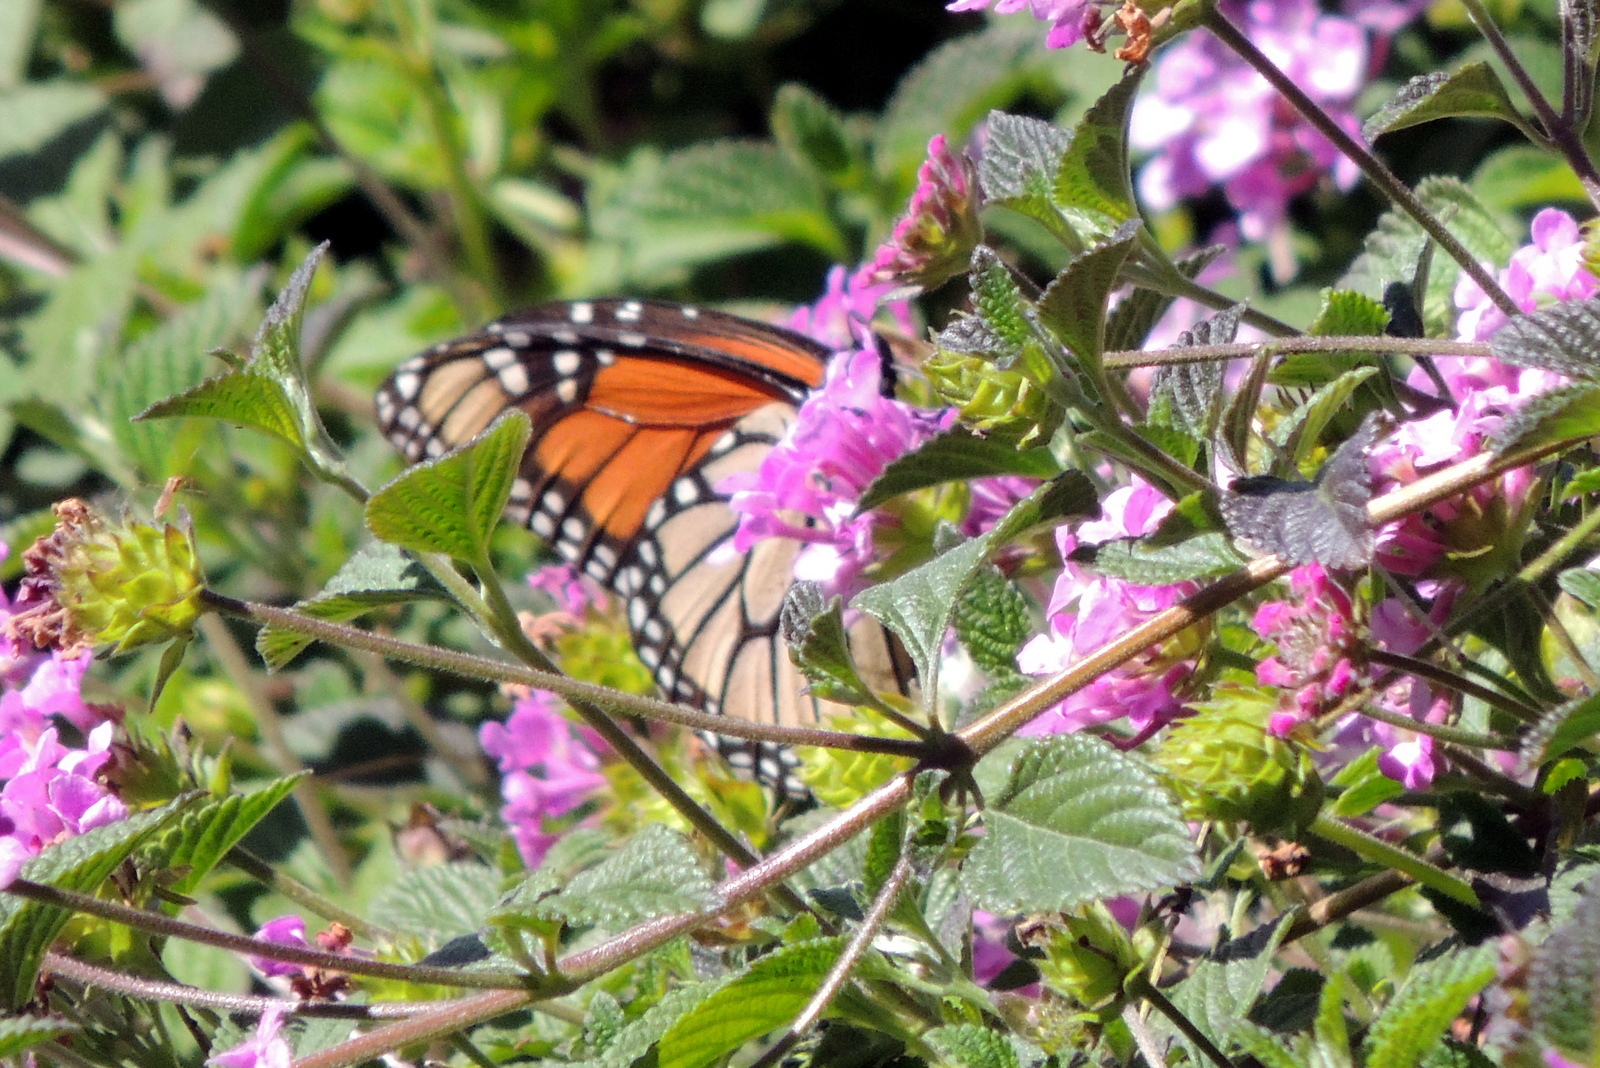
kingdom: Animalia
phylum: Arthropoda
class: Insecta
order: Lepidoptera
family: Nymphalidae
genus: Danaus
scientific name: Danaus plexippus
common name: Monarch
